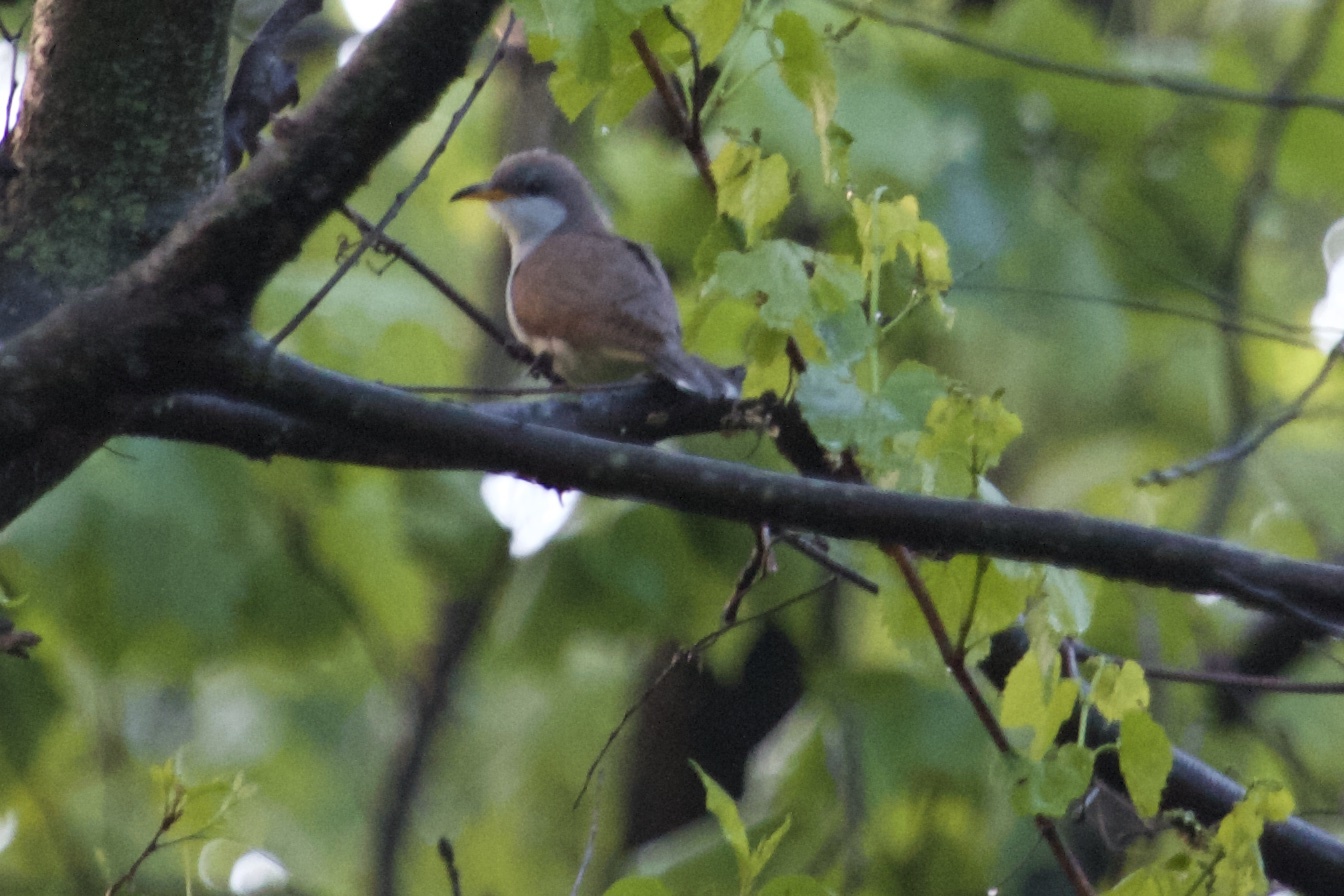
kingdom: Animalia
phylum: Chordata
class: Aves
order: Cuculiformes
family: Cuculidae
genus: Coccyzus
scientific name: Coccyzus americanus
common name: Yellow-billed cuckoo
